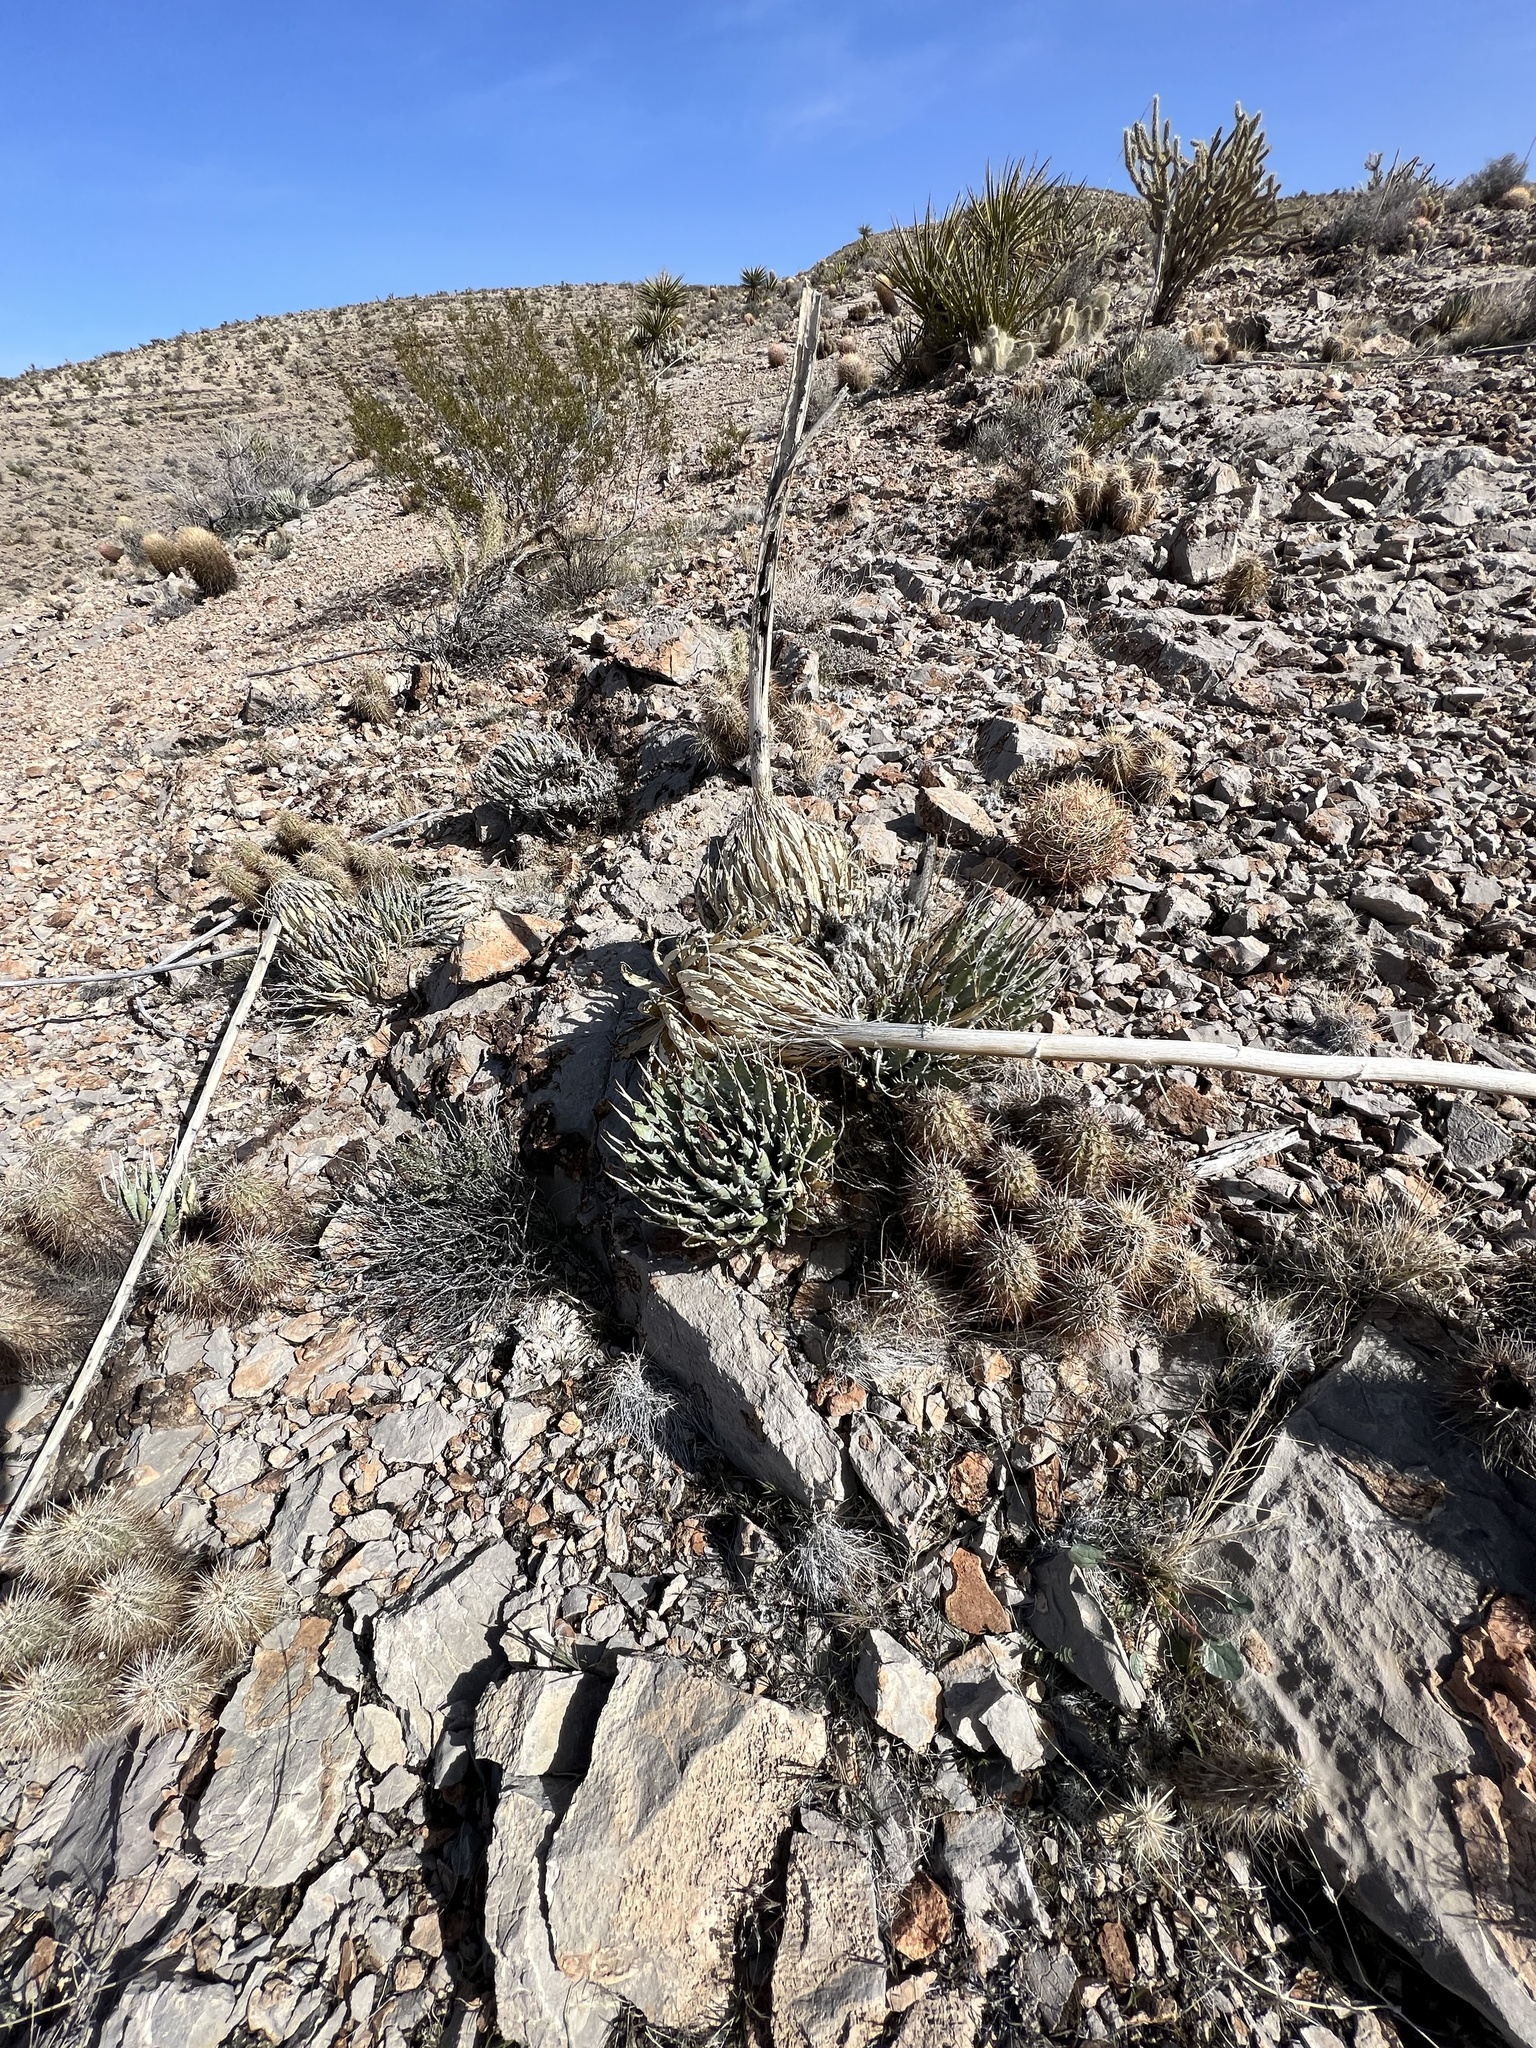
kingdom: Plantae
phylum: Tracheophyta
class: Liliopsida
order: Asparagales
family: Asparagaceae
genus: Agave
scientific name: Agave utahensis
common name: Utah agave
